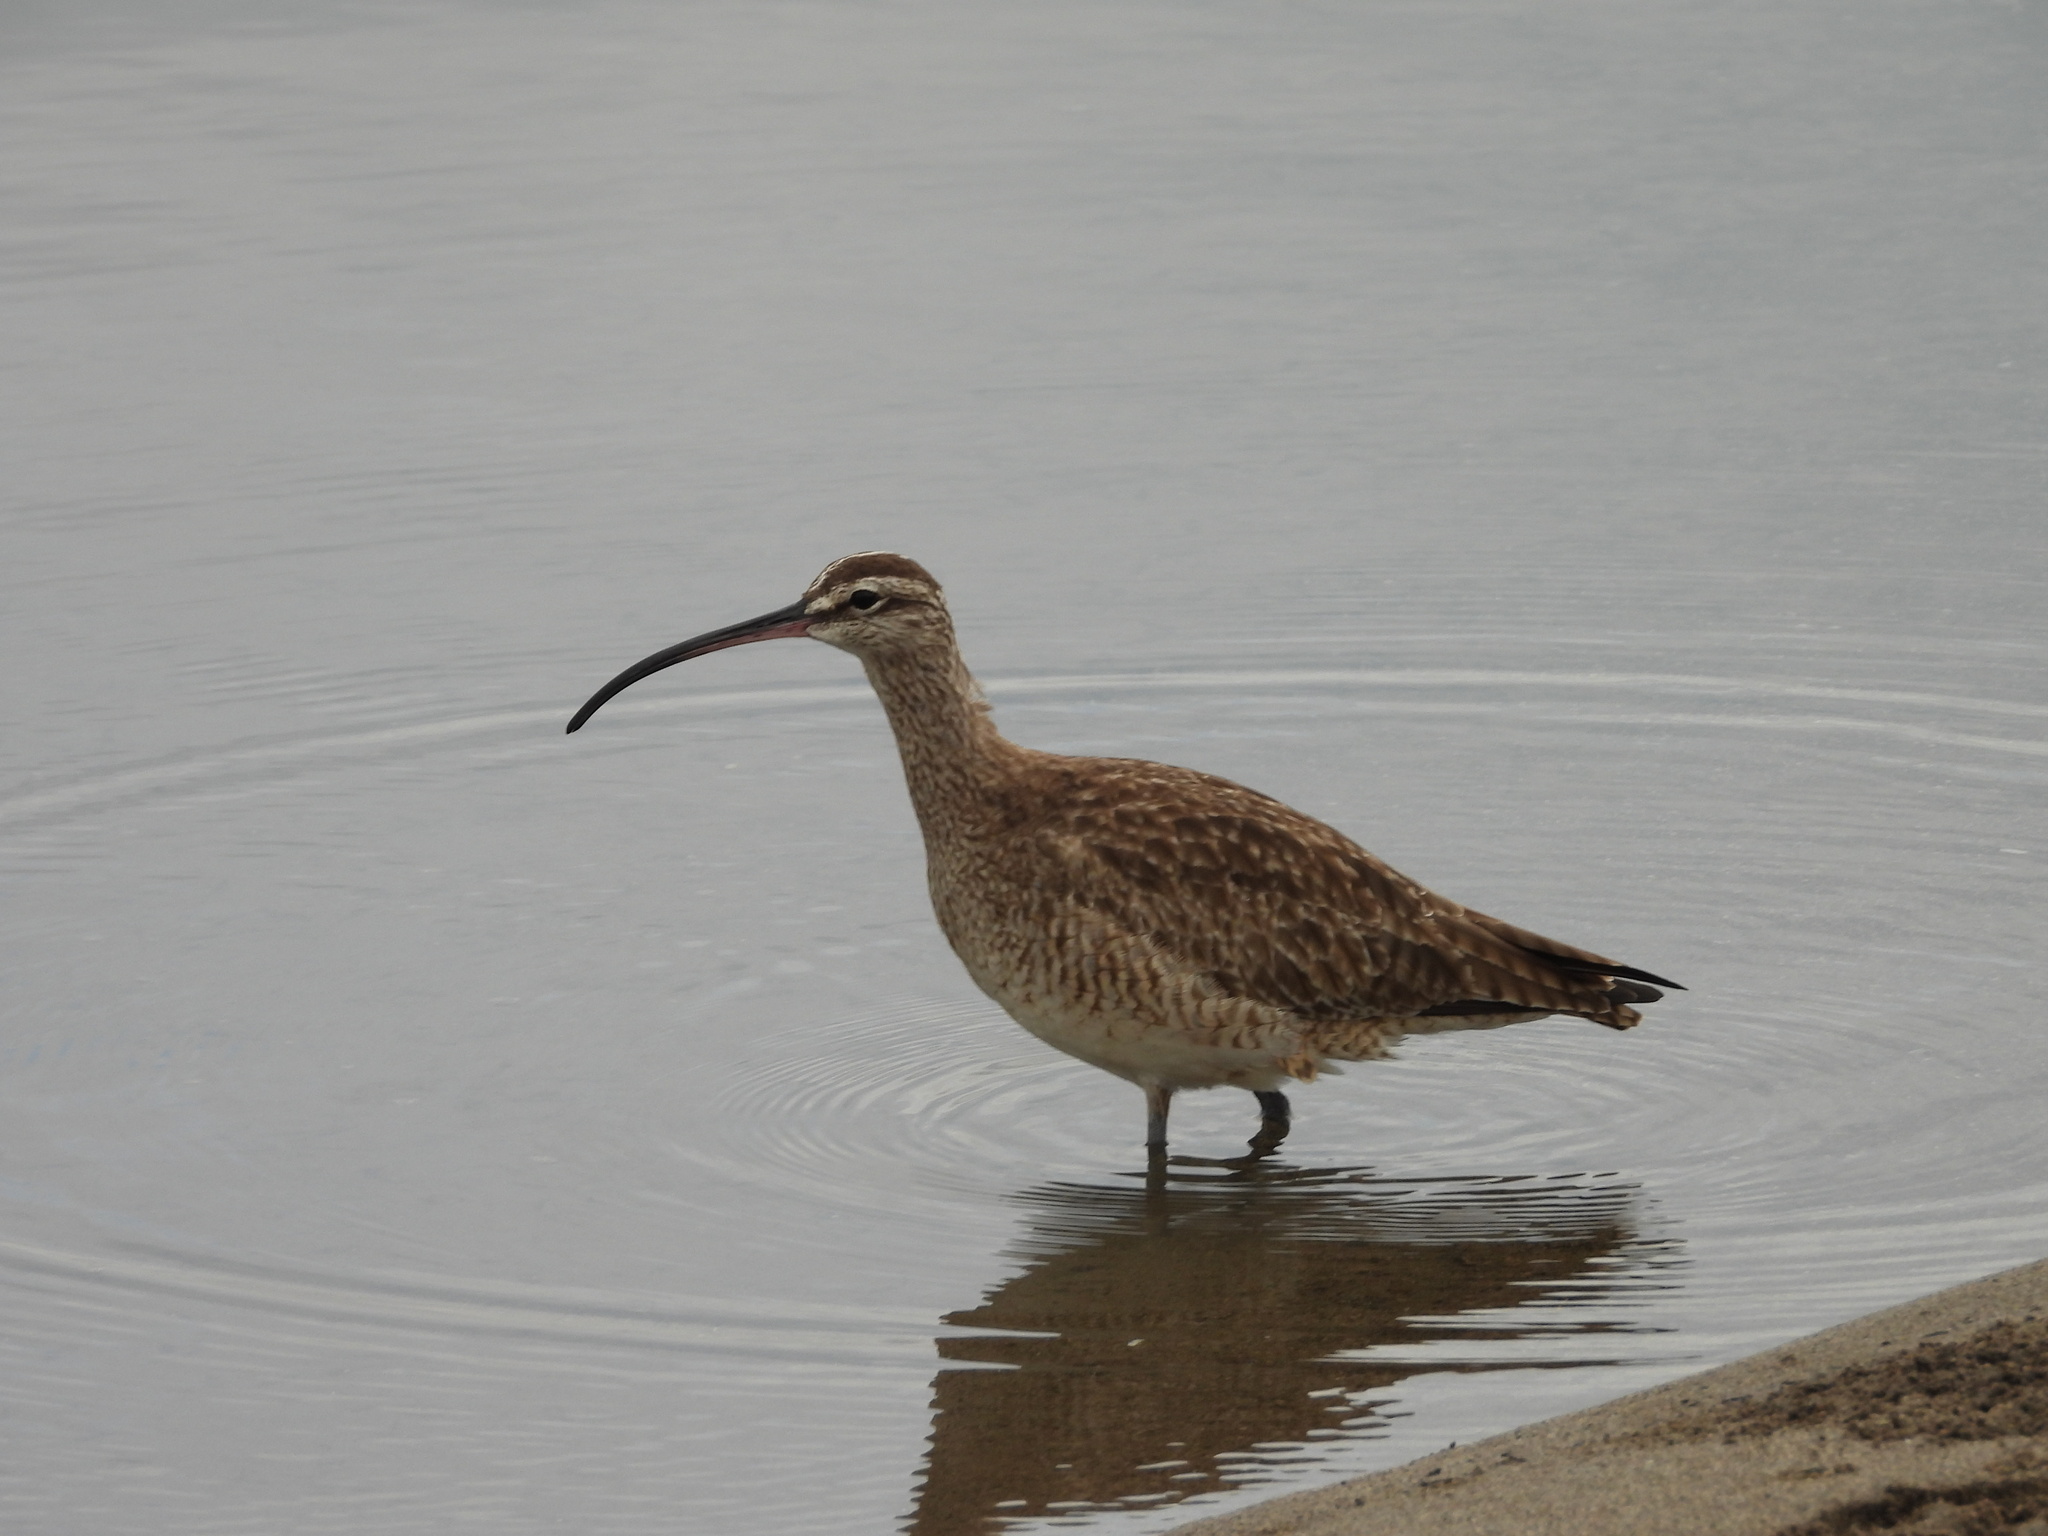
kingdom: Animalia
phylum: Chordata
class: Aves
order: Charadriiformes
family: Scolopacidae
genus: Numenius
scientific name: Numenius phaeopus
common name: Whimbrel
